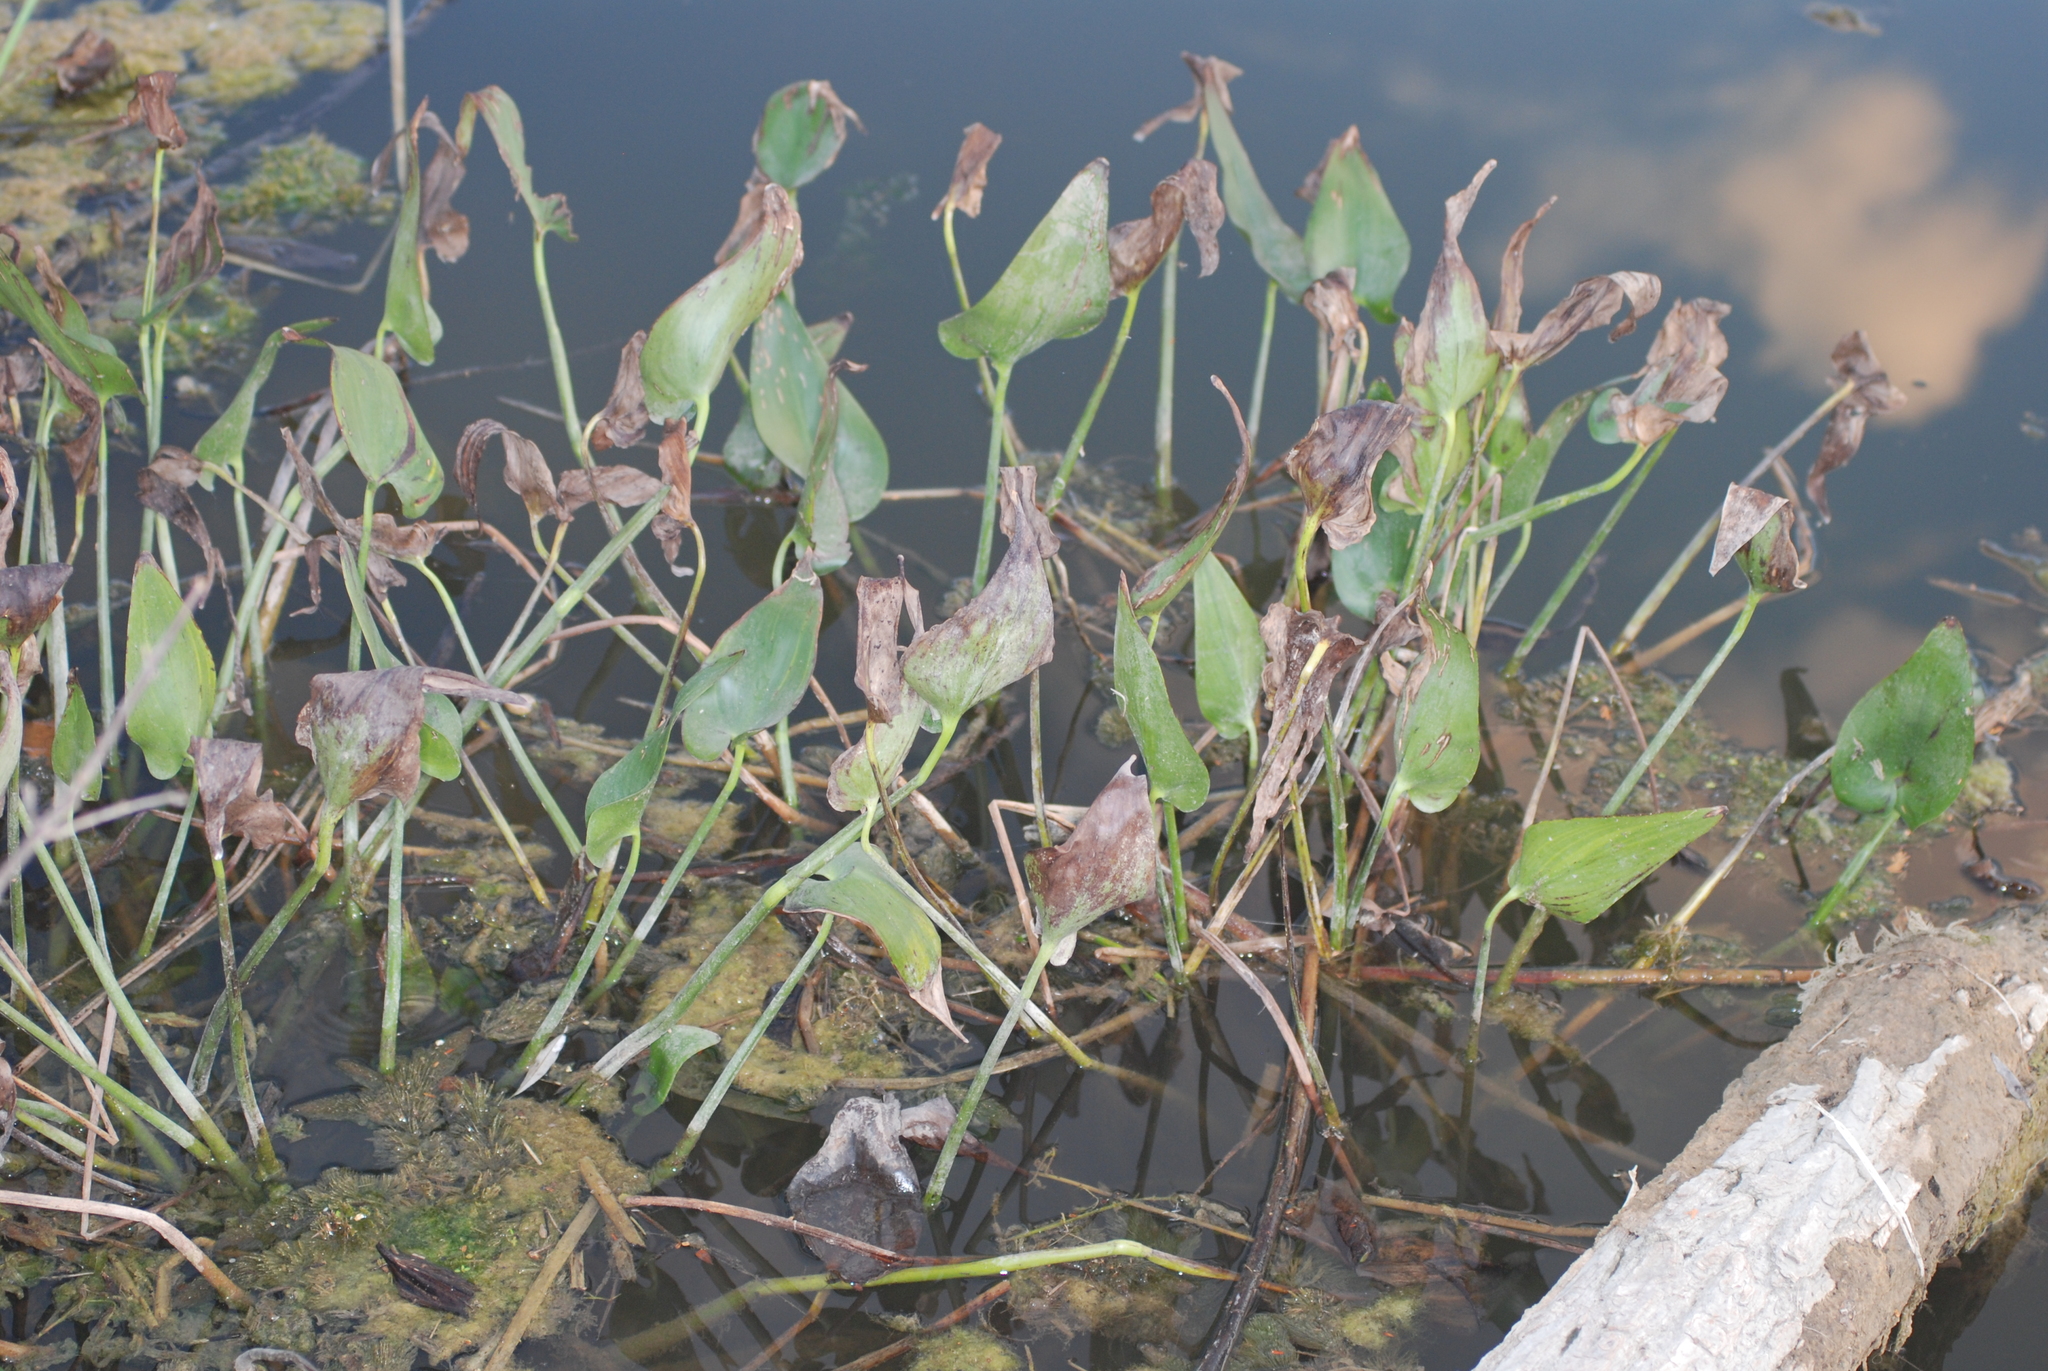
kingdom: Plantae
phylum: Tracheophyta
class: Liliopsida
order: Commelinales
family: Pontederiaceae
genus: Pontederia
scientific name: Pontederia cordata
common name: Pickerelweed
